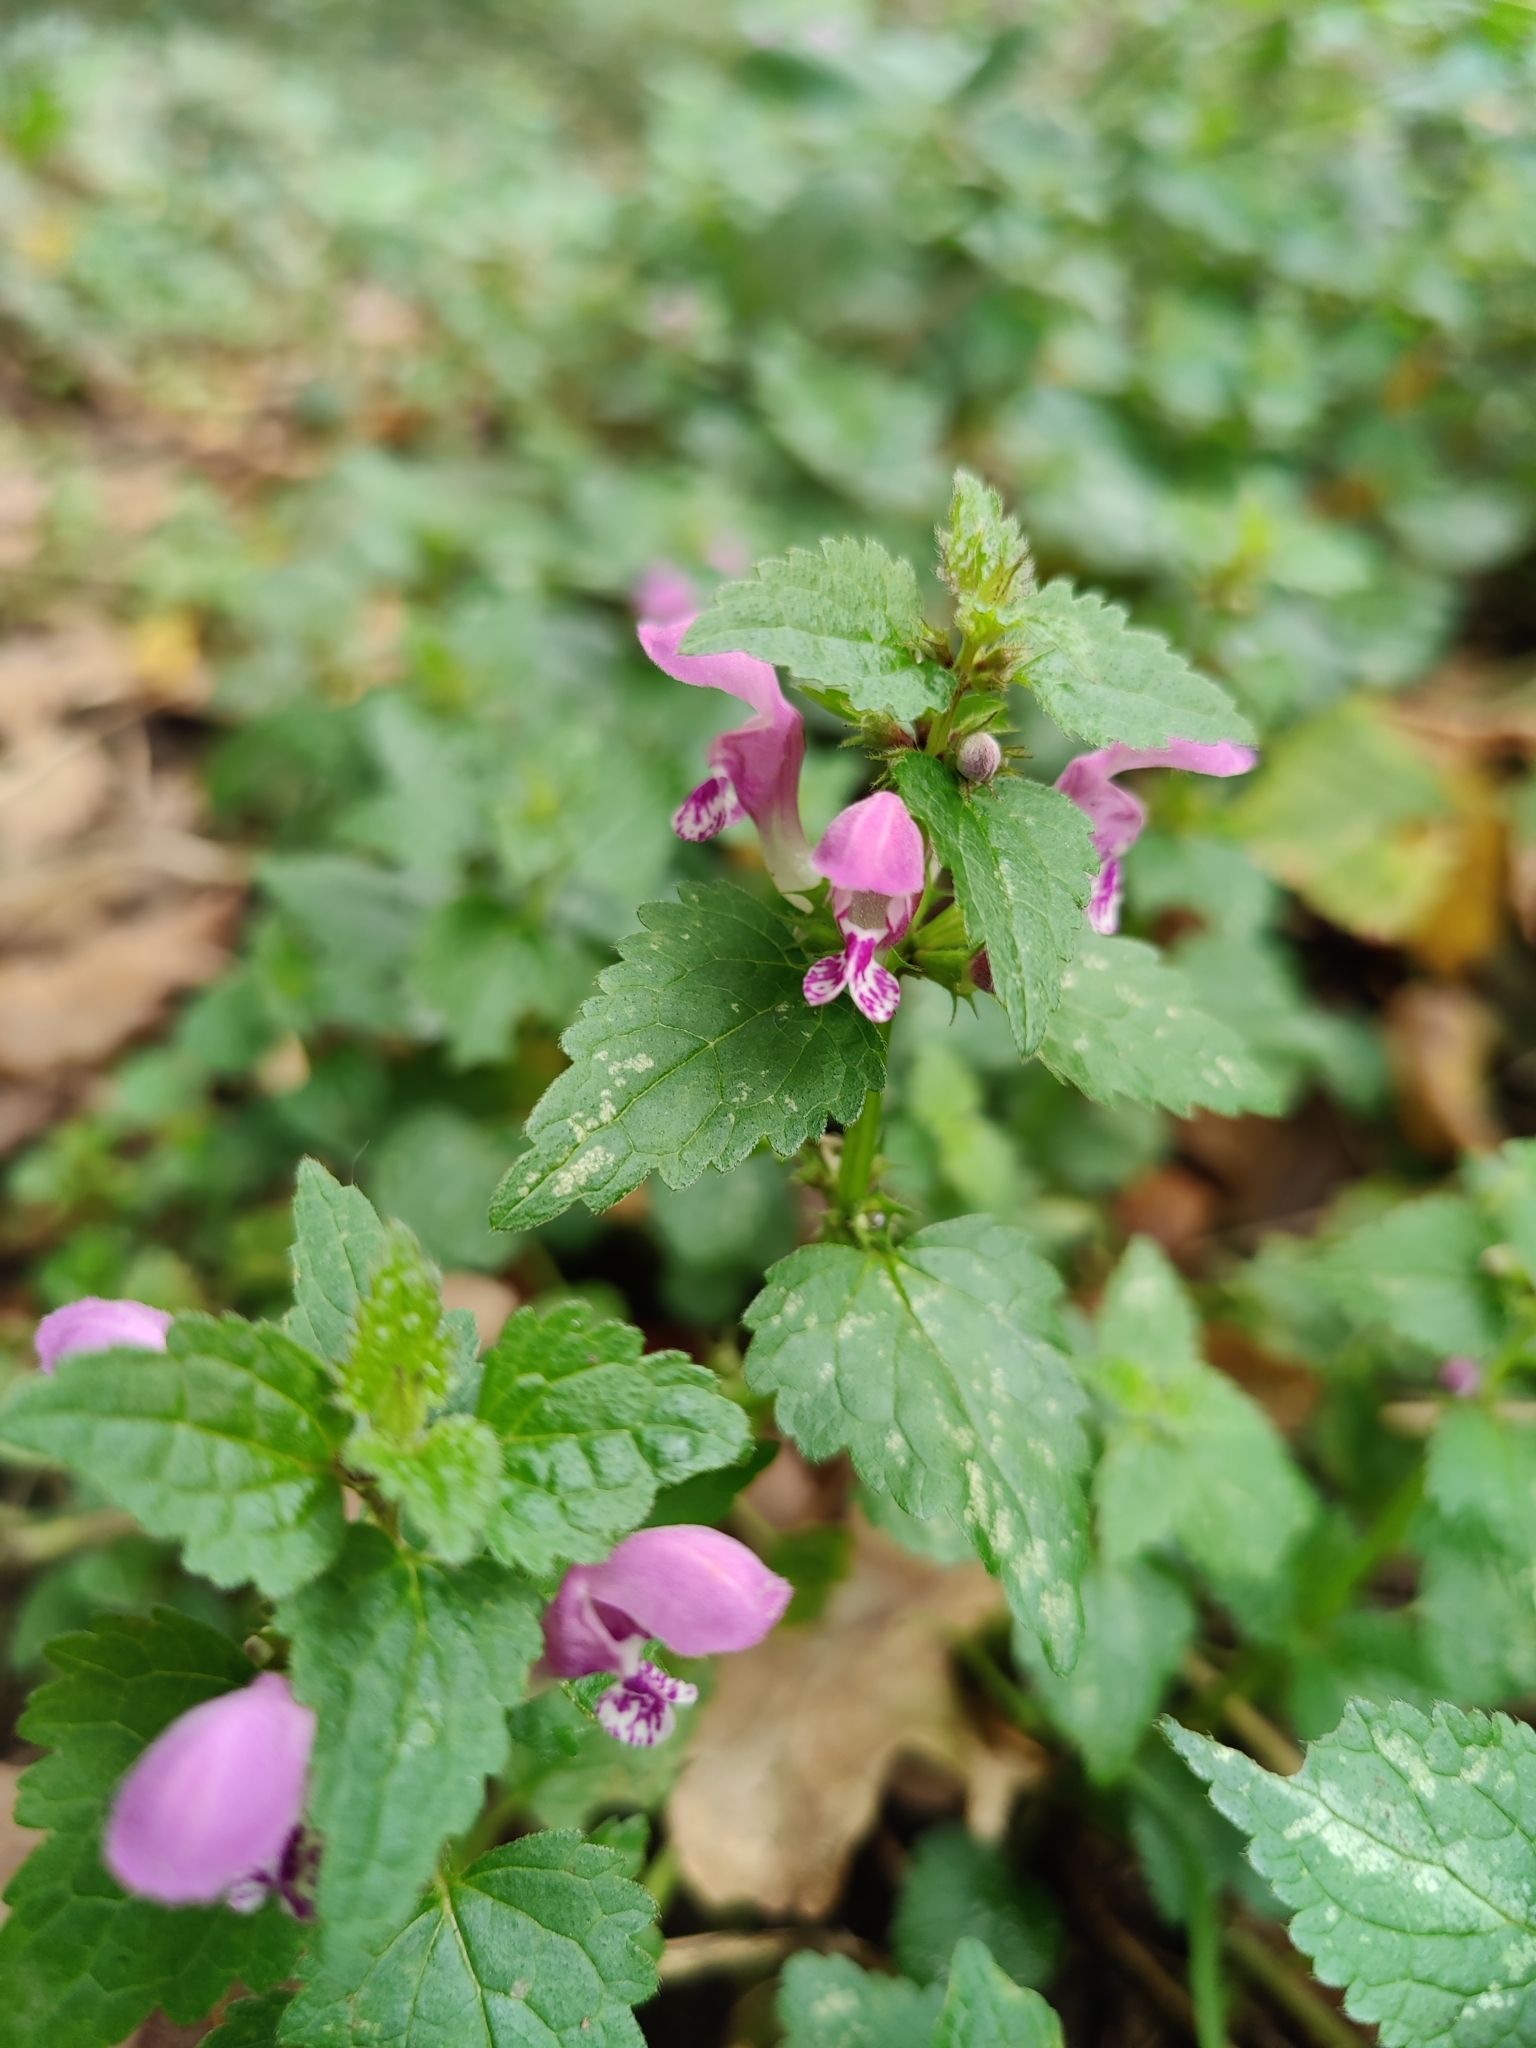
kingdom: Plantae
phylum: Tracheophyta
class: Magnoliopsida
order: Lamiales
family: Lamiaceae
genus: Lamium
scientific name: Lamium maculatum
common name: Spotted dead-nettle
